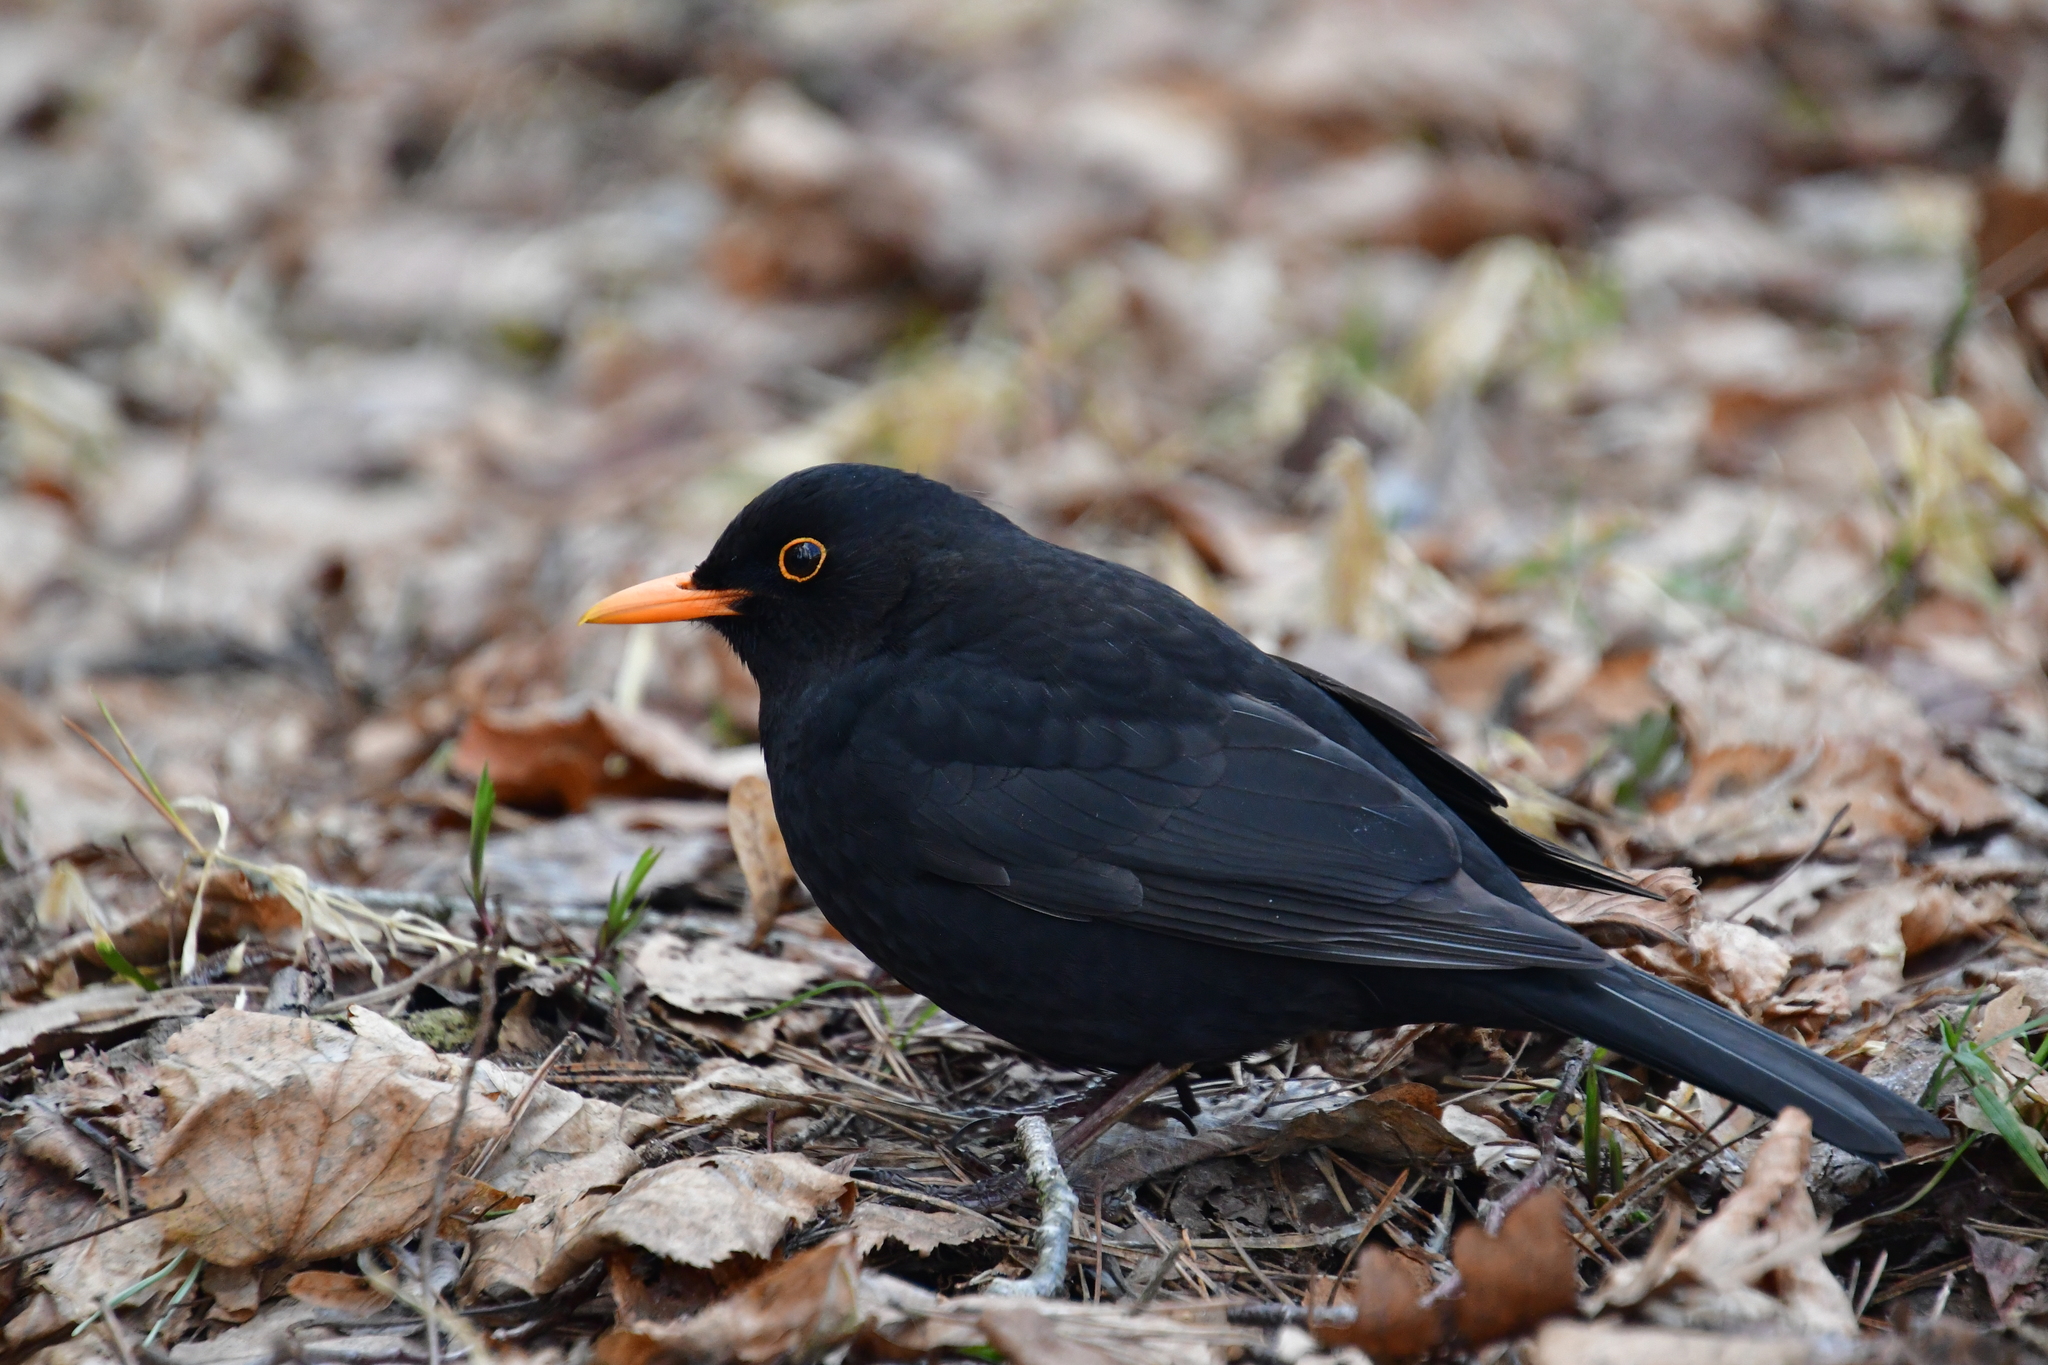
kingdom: Animalia
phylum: Chordata
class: Aves
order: Passeriformes
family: Turdidae
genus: Turdus
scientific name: Turdus merula
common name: Common blackbird
